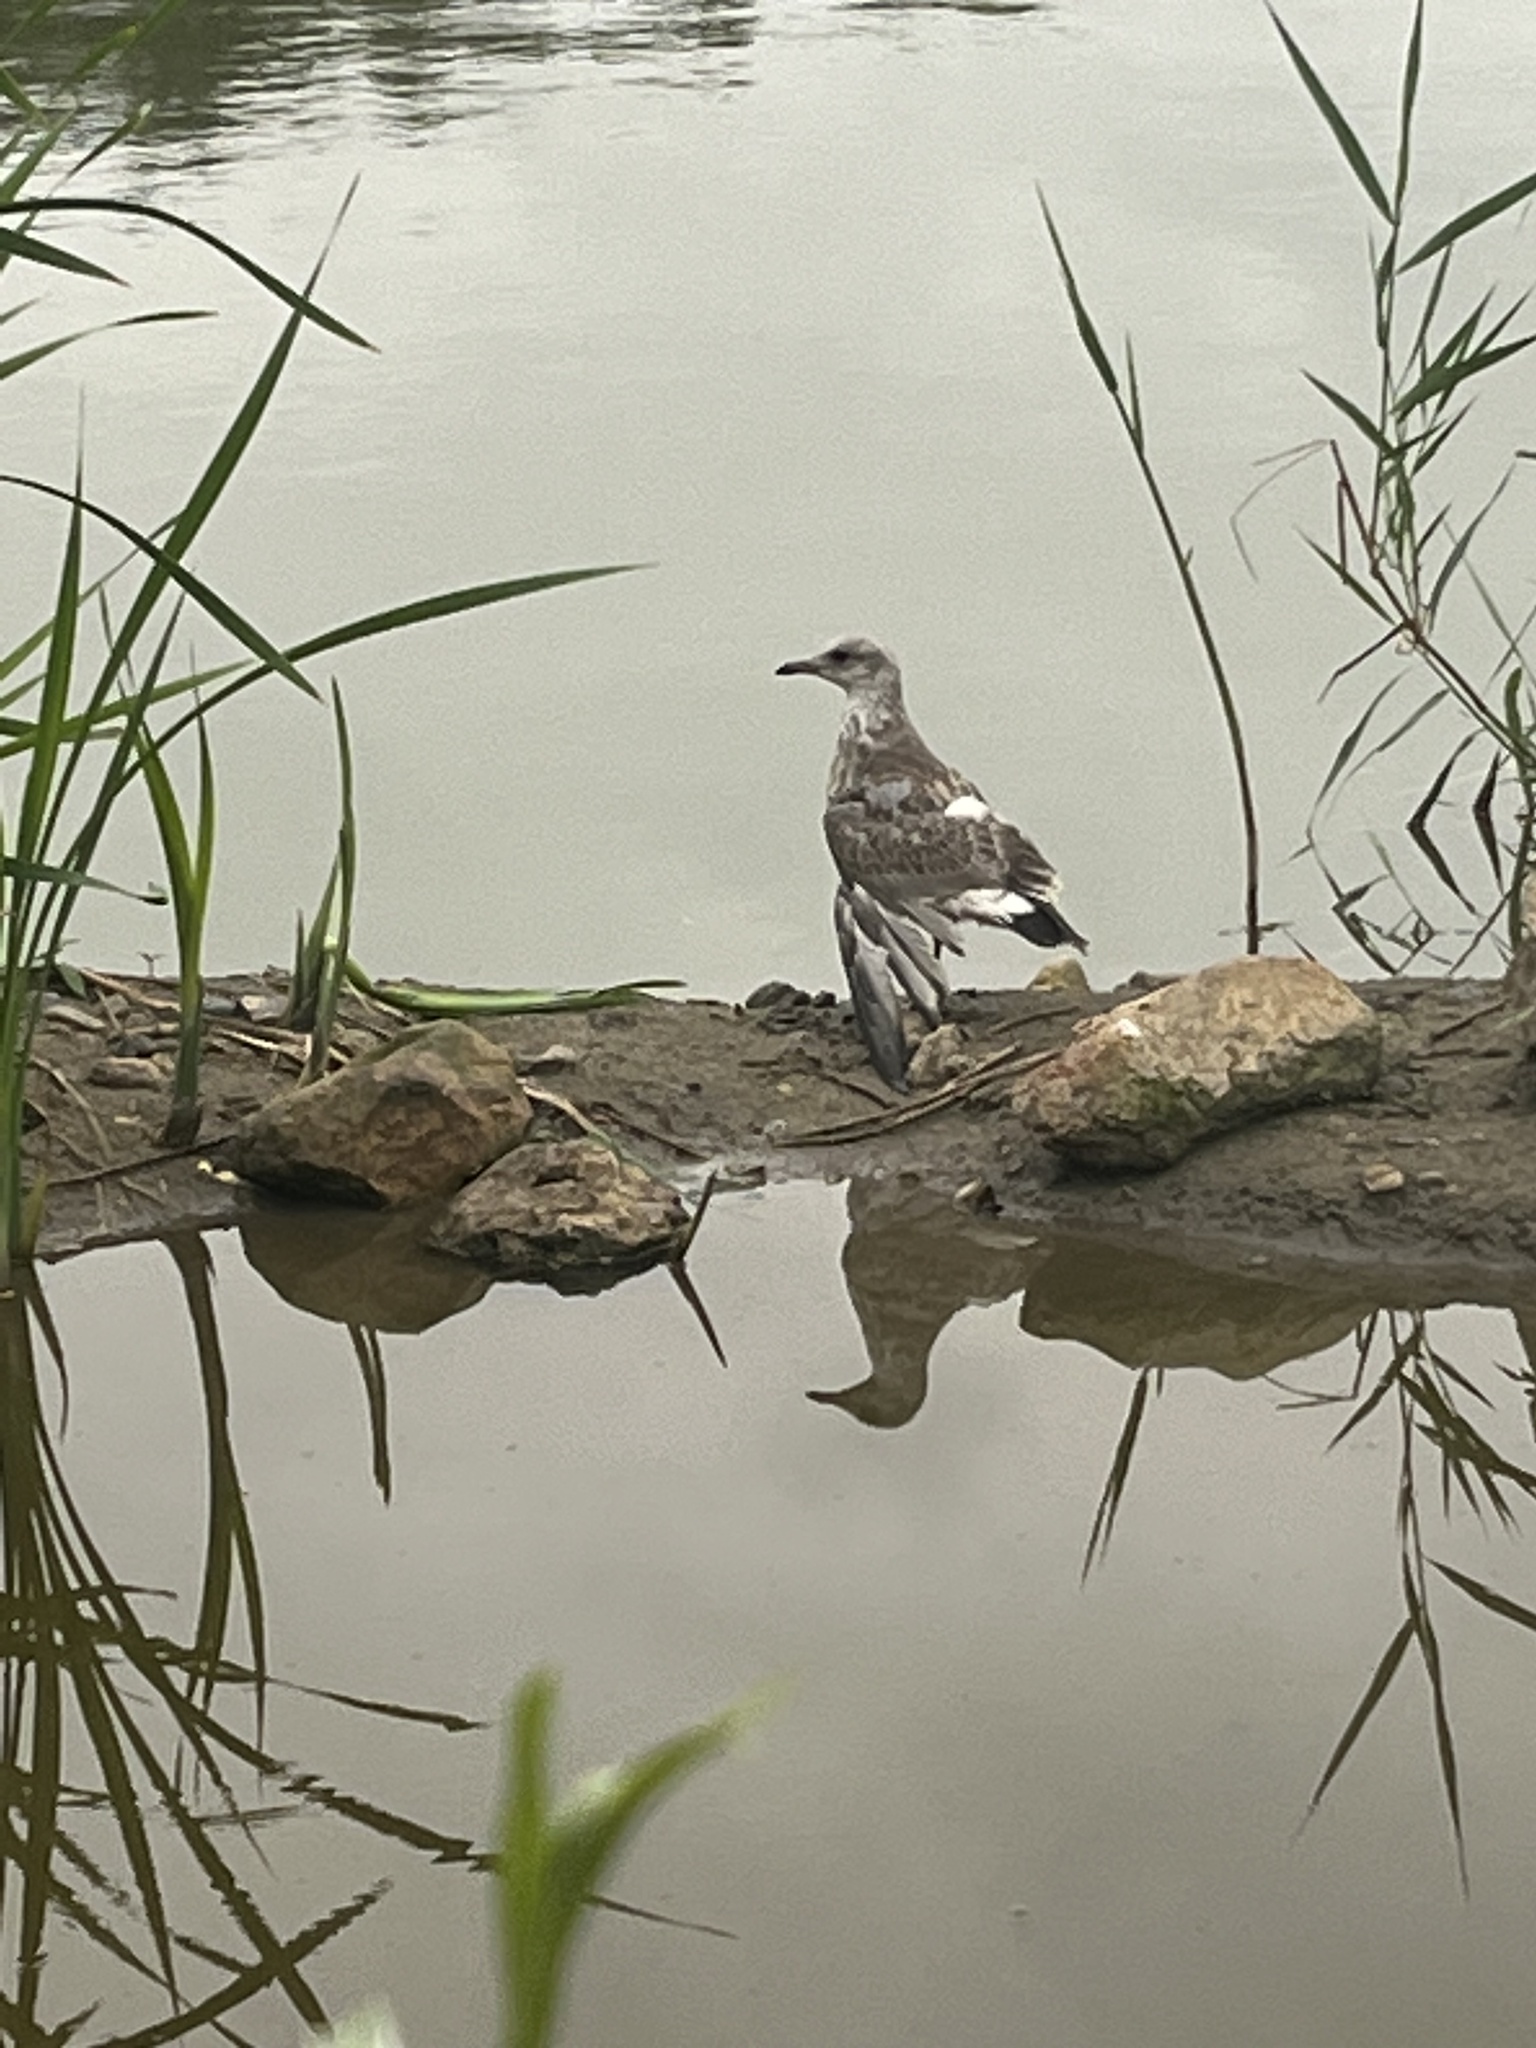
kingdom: Animalia
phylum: Chordata
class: Aves
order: Charadriiformes
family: Laridae
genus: Larus
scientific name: Larus canus
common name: Mew gull
